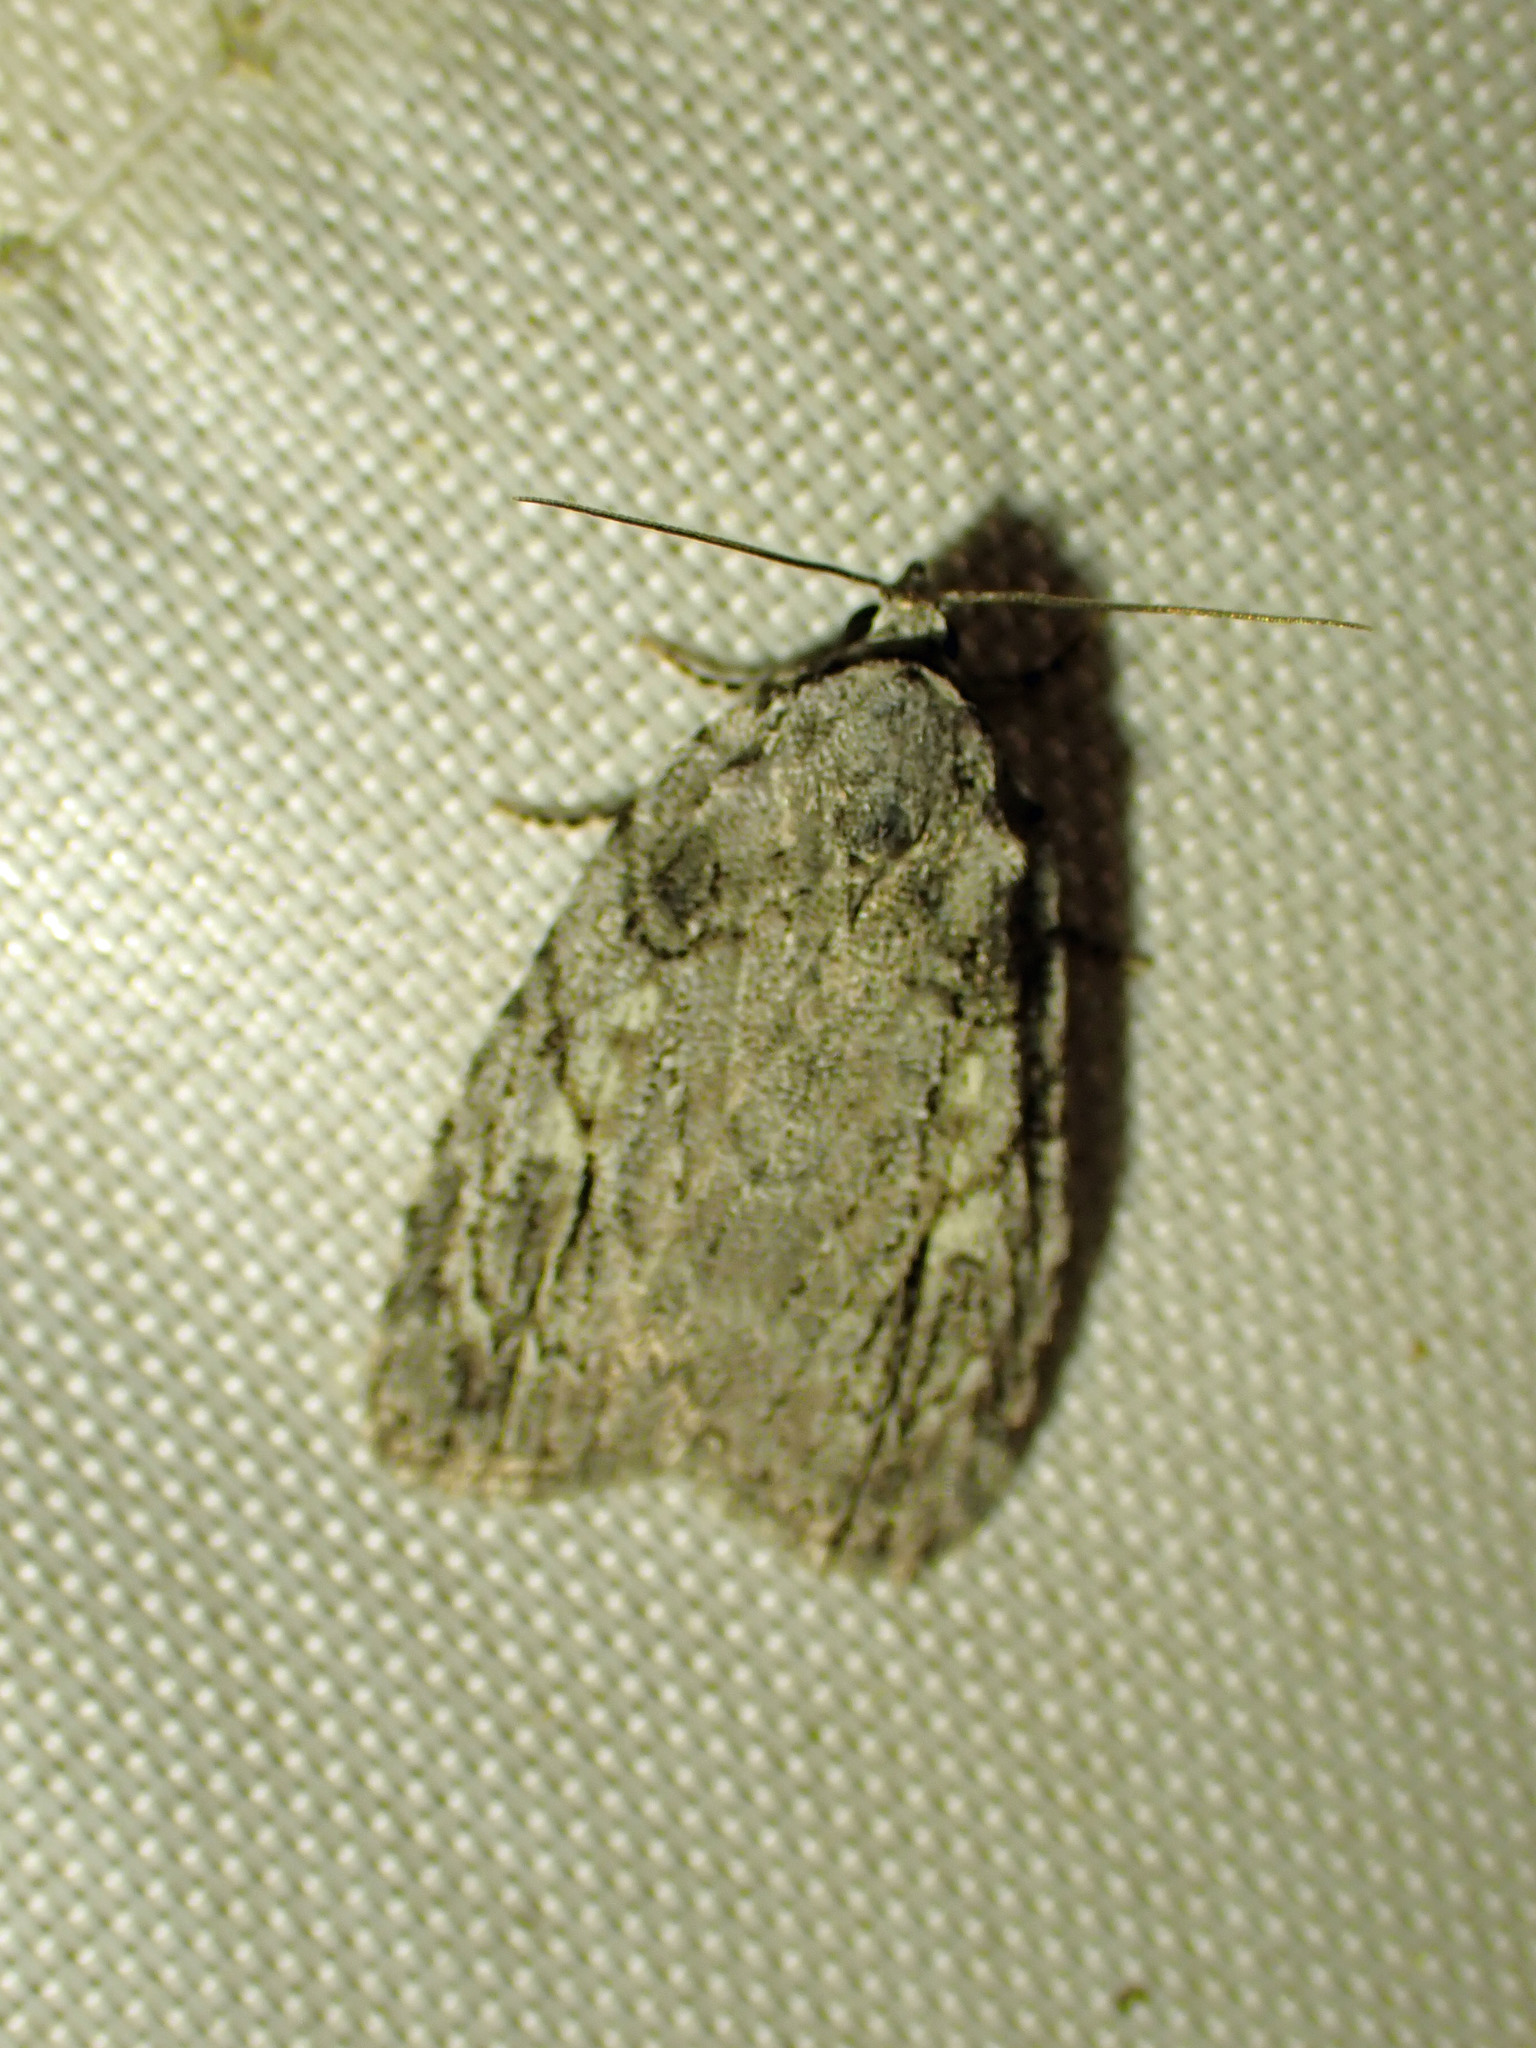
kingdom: Animalia
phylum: Arthropoda
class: Insecta
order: Lepidoptera
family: Noctuidae
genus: Balsa
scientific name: Balsa labecula
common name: White-blotched balsa moth
